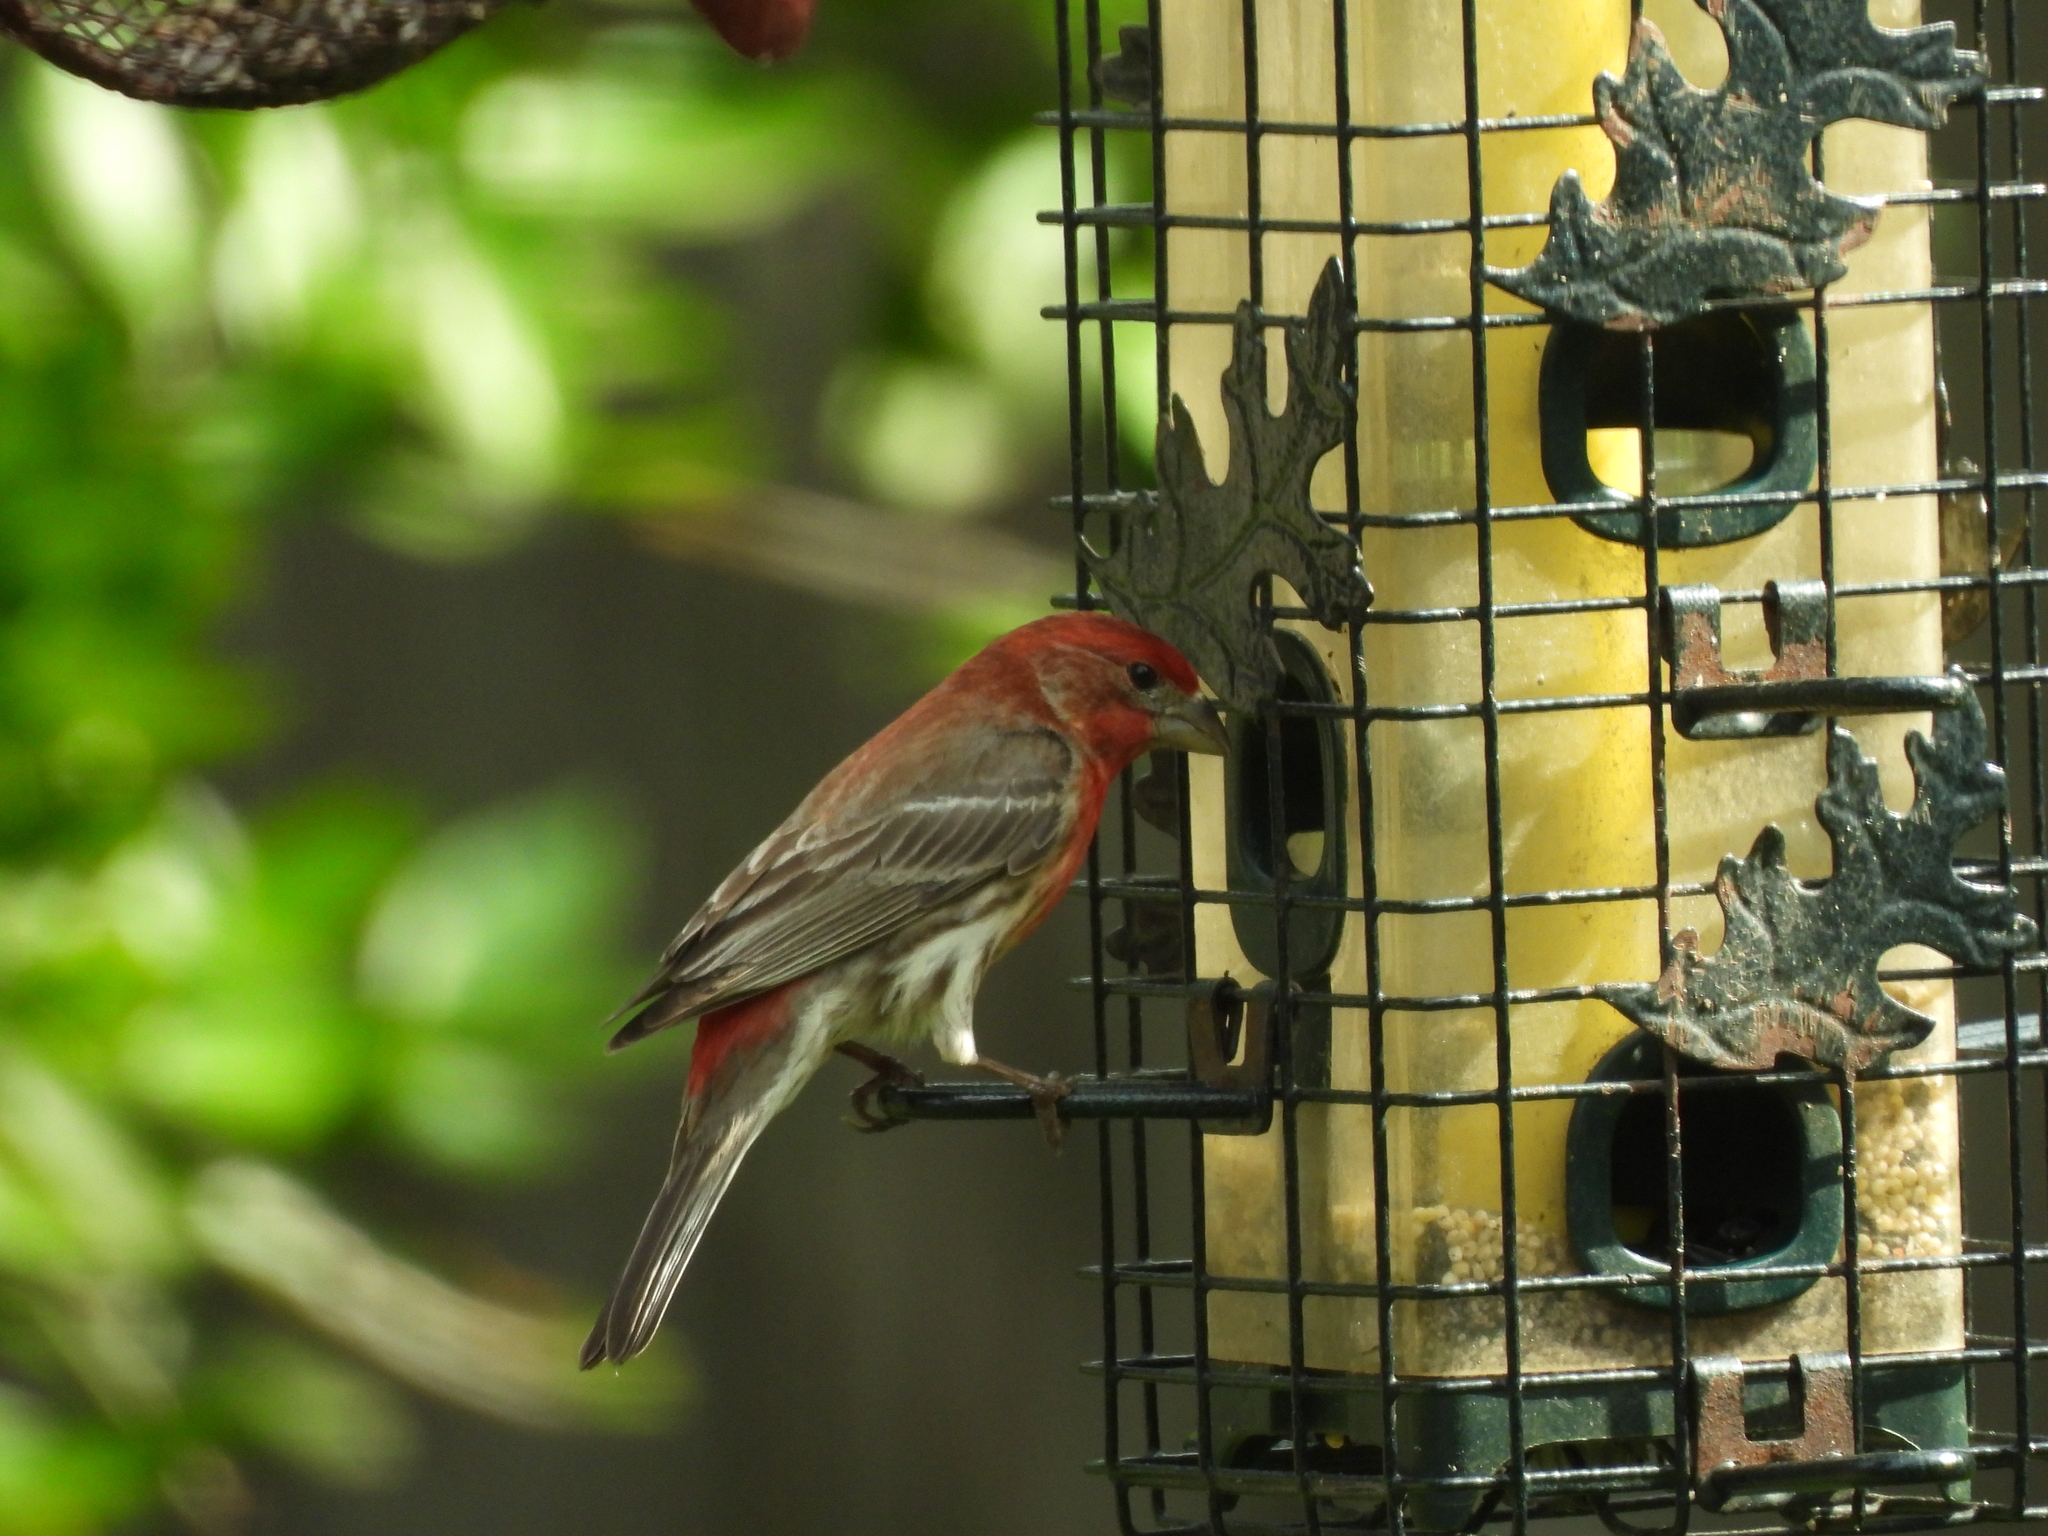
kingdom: Animalia
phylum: Chordata
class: Aves
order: Passeriformes
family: Fringillidae
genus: Haemorhous
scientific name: Haemorhous mexicanus
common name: House finch
